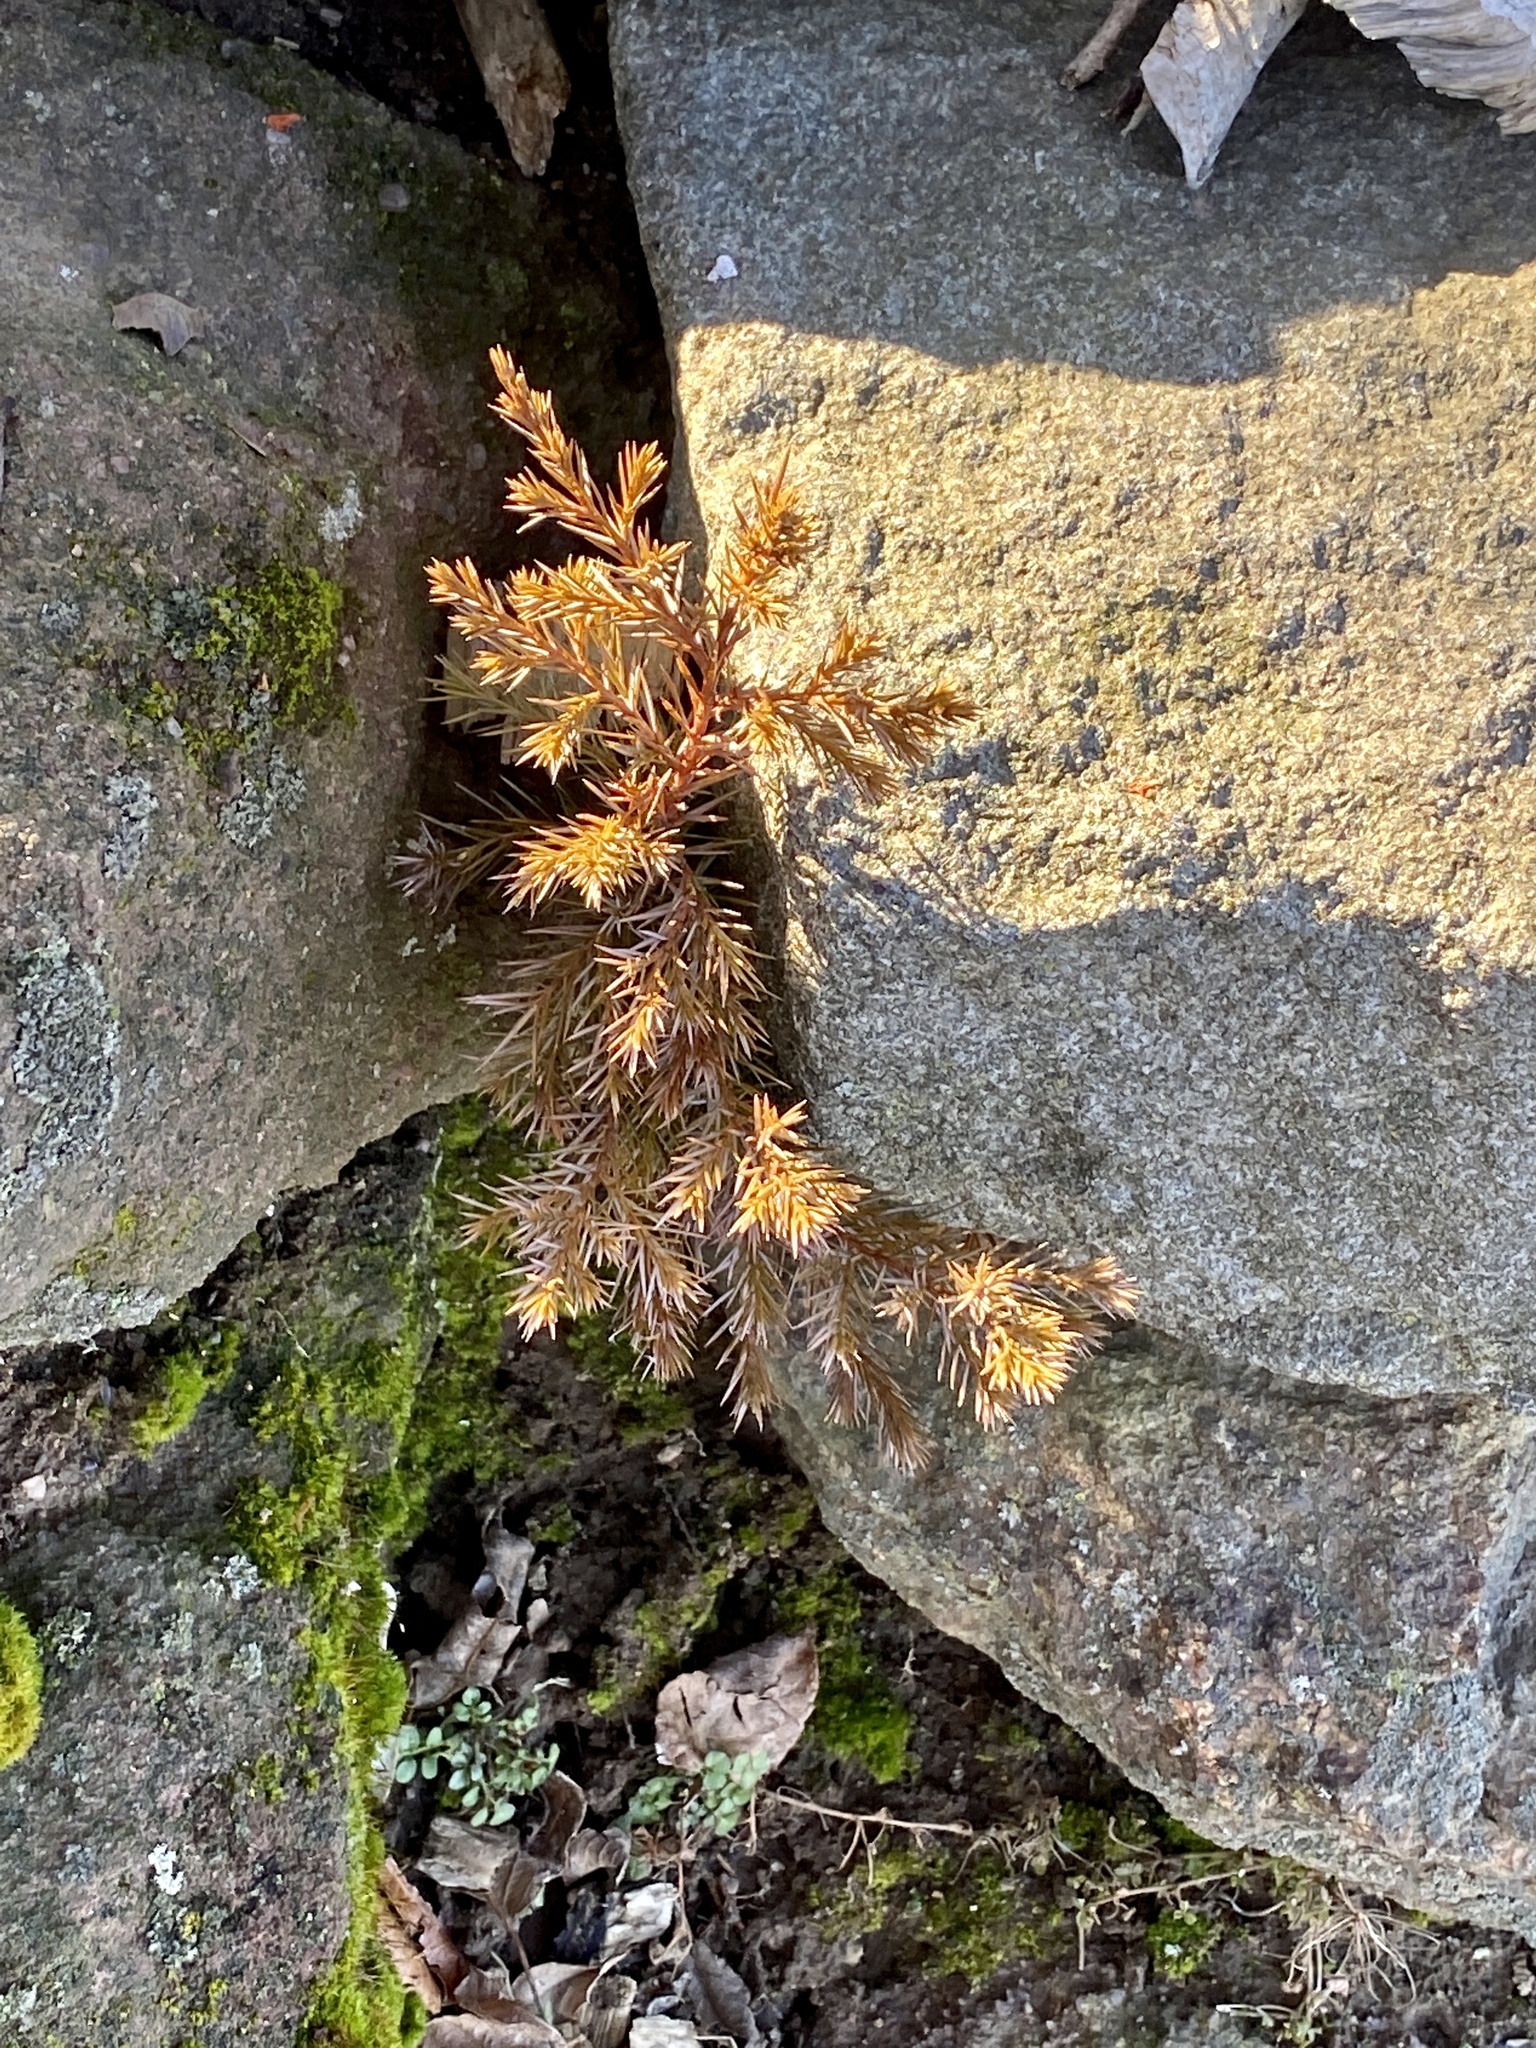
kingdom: Plantae
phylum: Tracheophyta
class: Pinopsida
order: Pinales
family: Cupressaceae
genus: Juniperus
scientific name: Juniperus virginiana
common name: Red juniper
